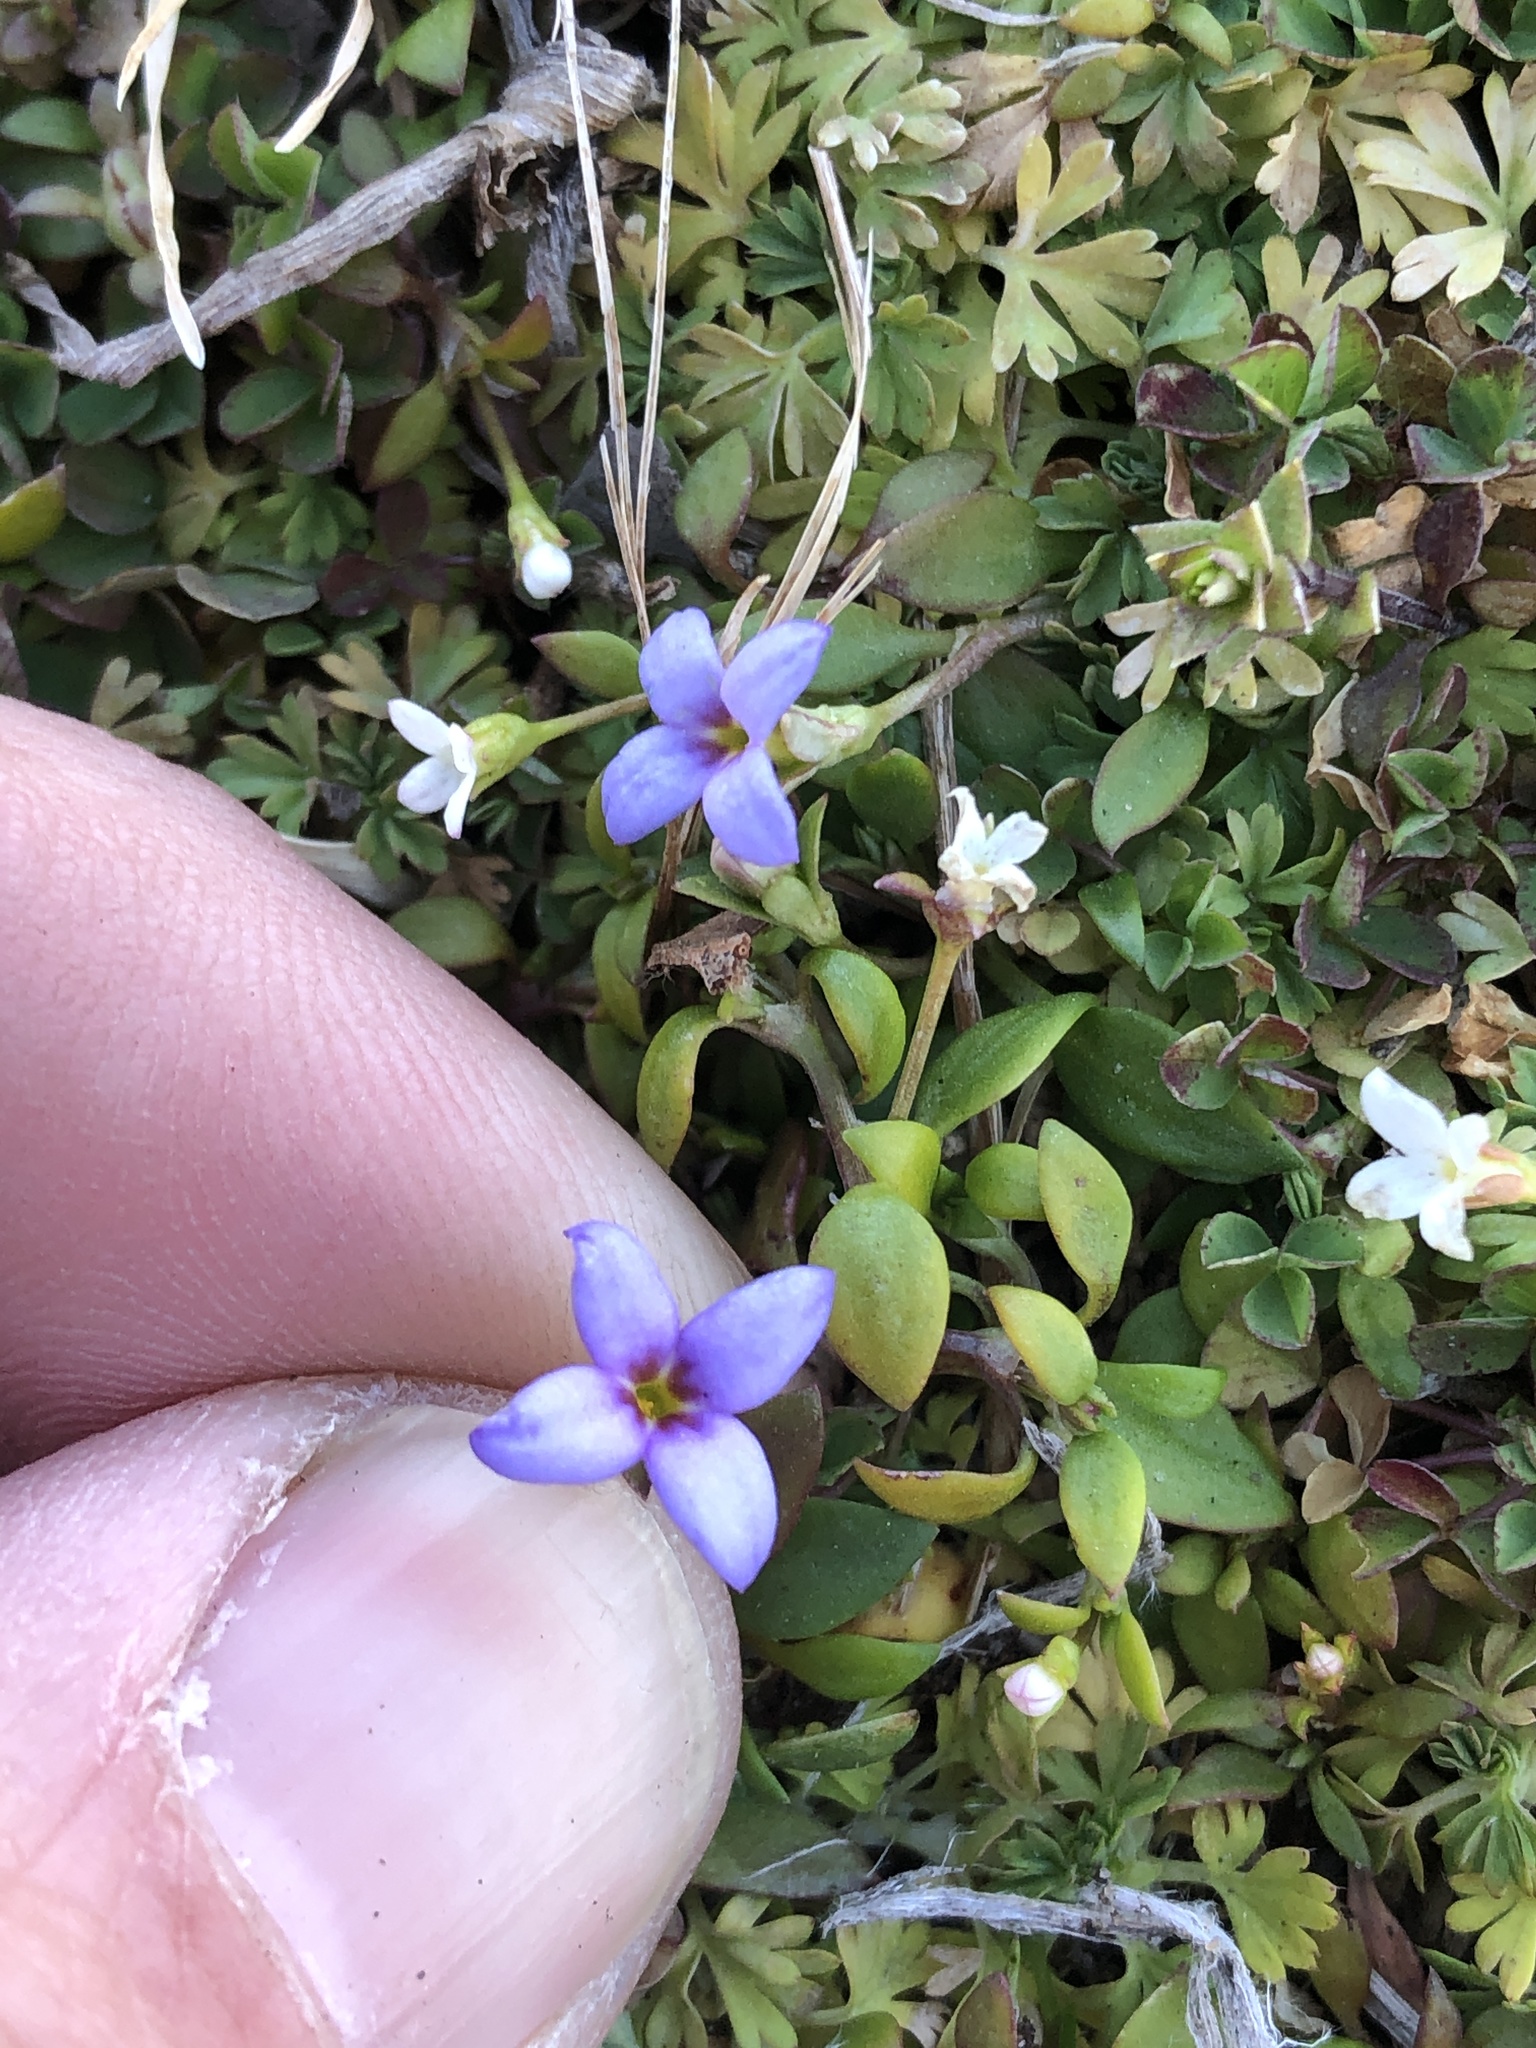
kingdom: Plantae
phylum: Tracheophyta
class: Magnoliopsida
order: Gentianales
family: Rubiaceae
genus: Houstonia
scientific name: Houstonia pusilla
